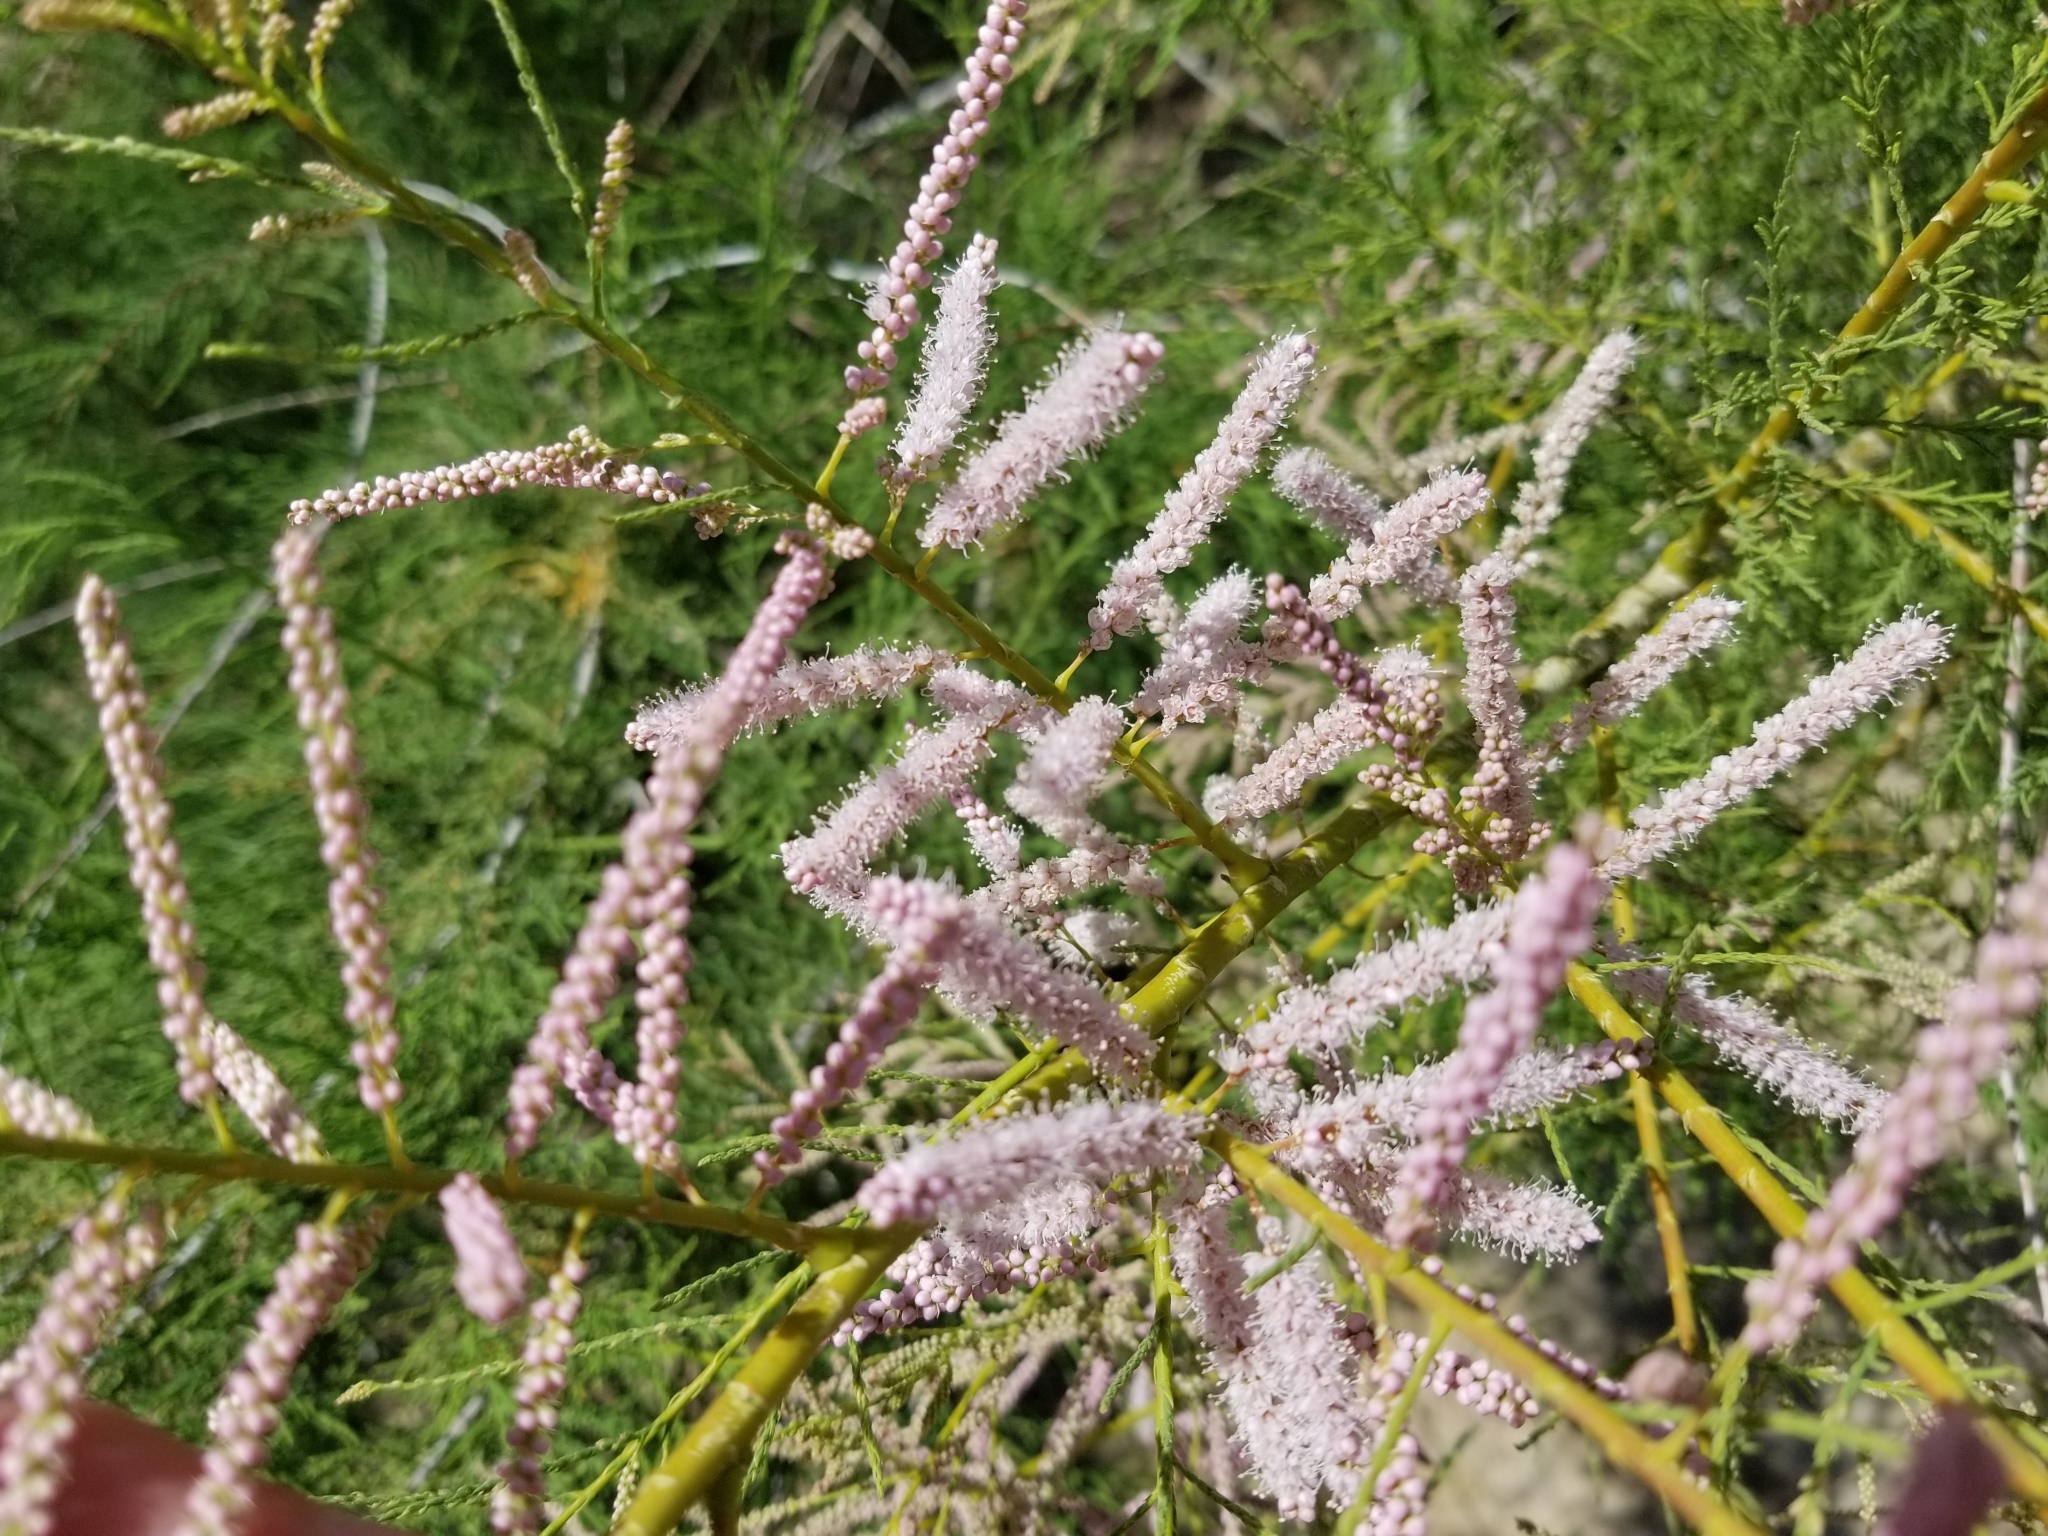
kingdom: Plantae
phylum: Tracheophyta
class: Magnoliopsida
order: Caryophyllales
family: Tamaricaceae
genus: Tamarix
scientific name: Tamarix ramosissima
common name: Pink tamarisk
